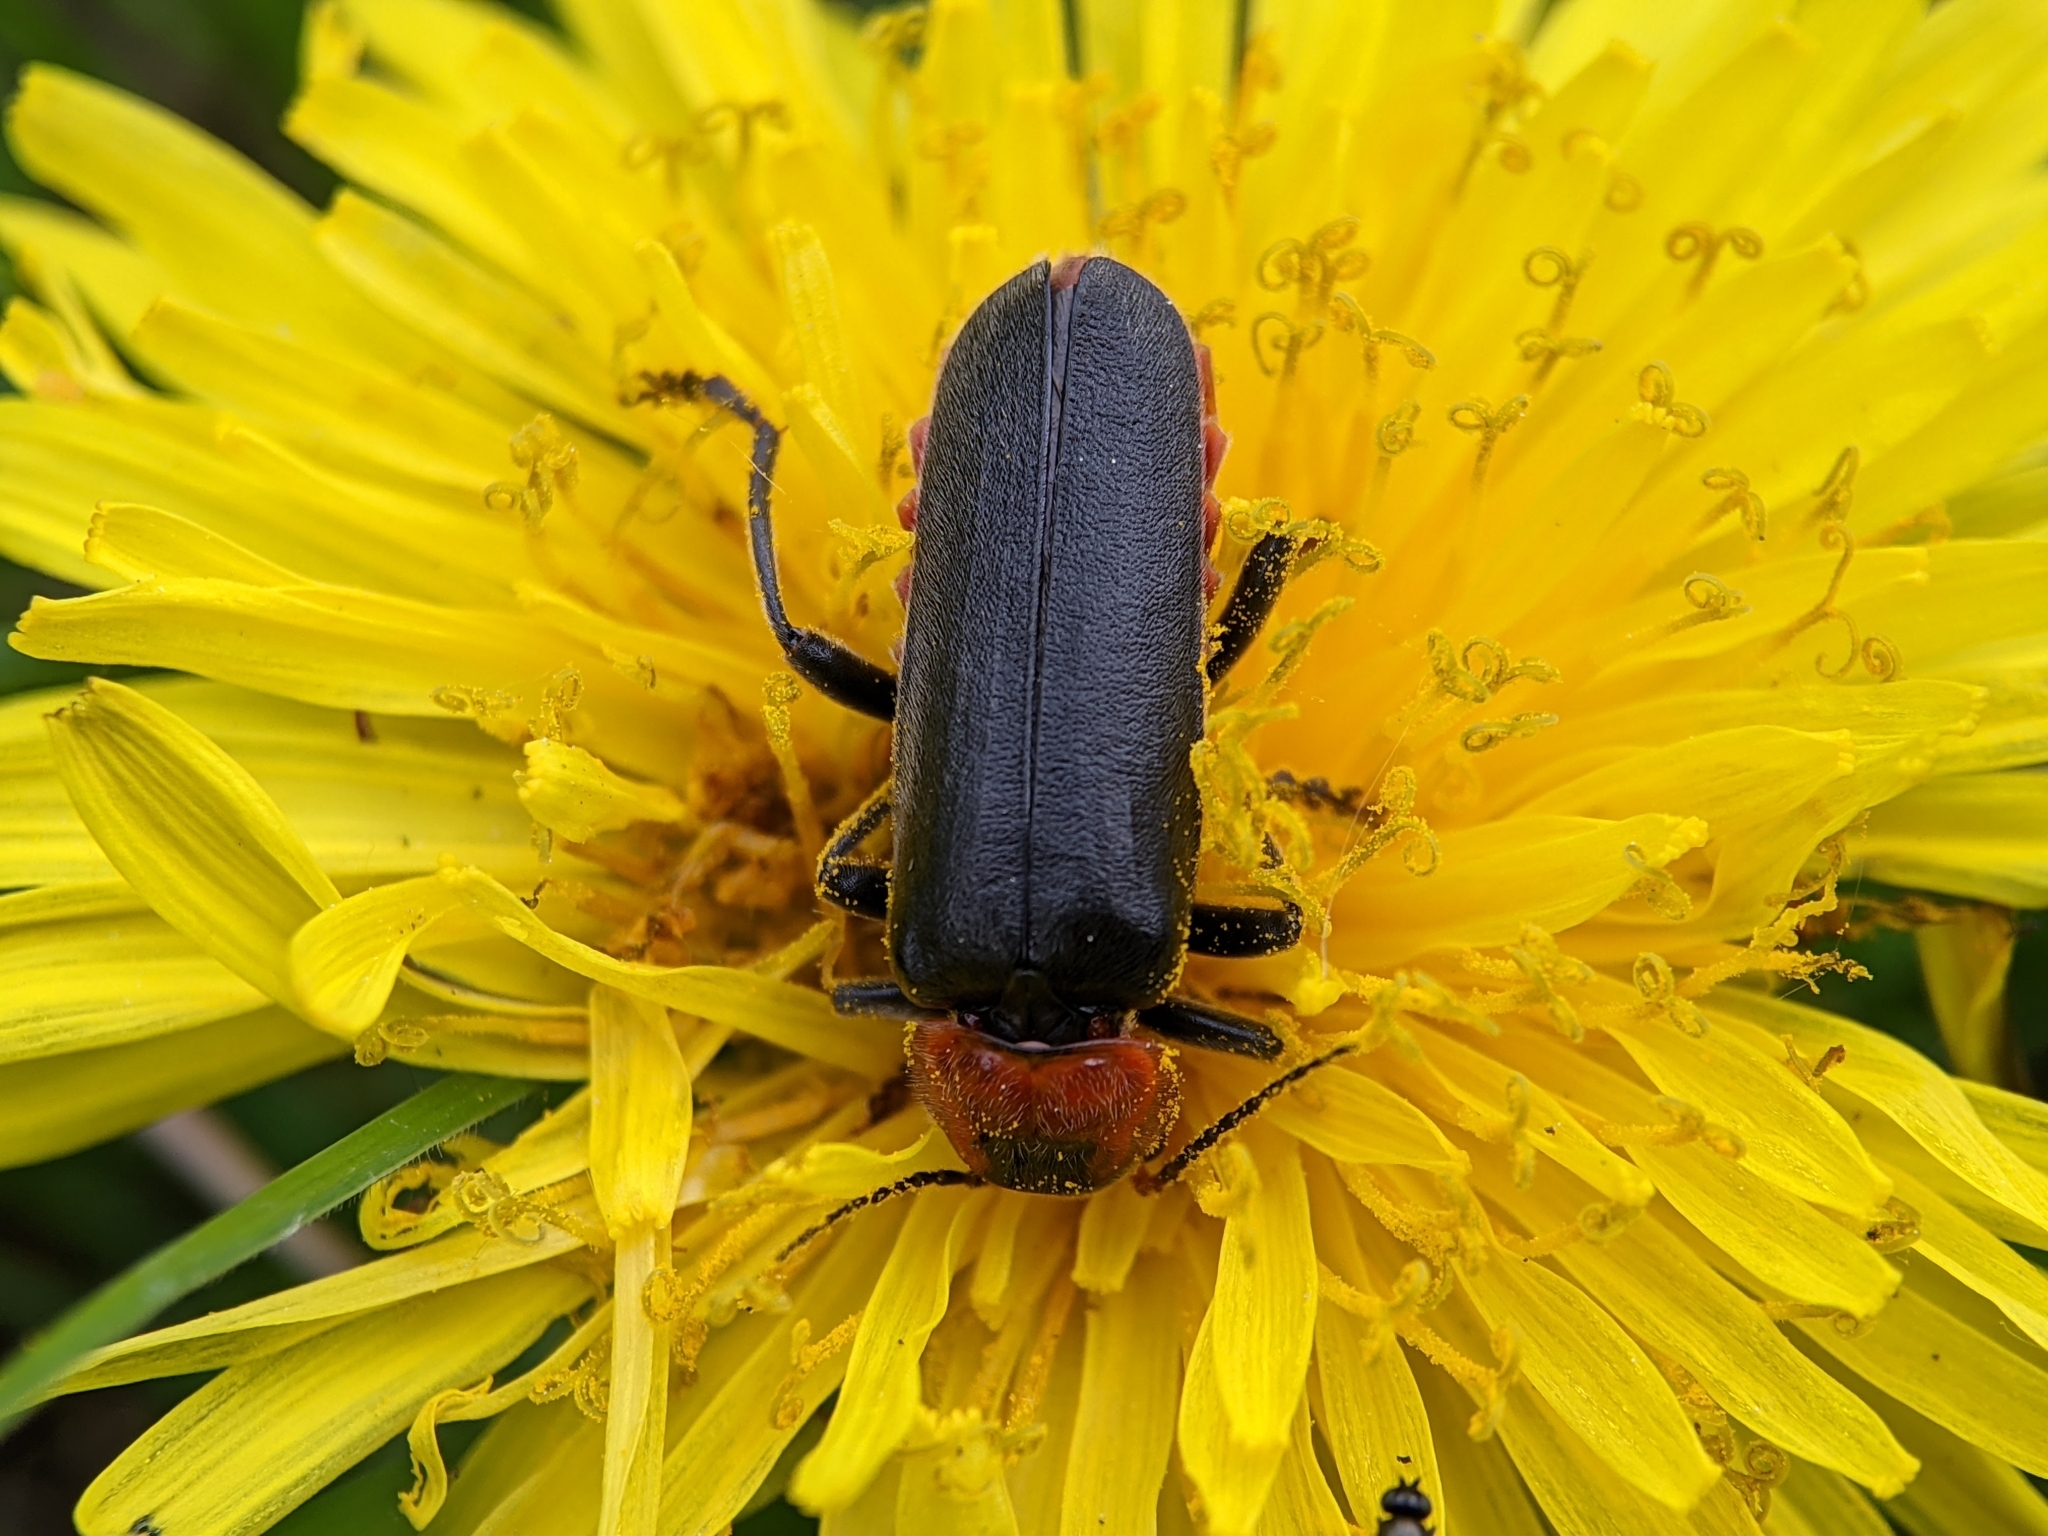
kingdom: Animalia
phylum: Arthropoda
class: Insecta
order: Coleoptera
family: Cantharidae
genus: Cantharis
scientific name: Cantharis fusca
